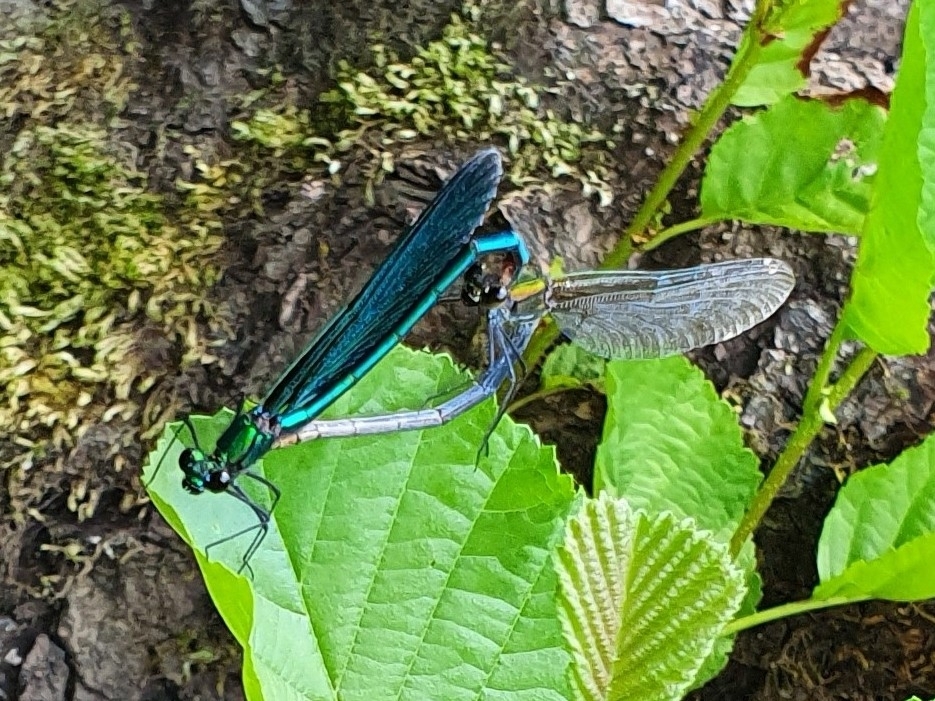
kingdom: Animalia
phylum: Arthropoda
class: Insecta
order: Odonata
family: Calopterygidae
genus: Calopteryx
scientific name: Calopteryx virgo
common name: Beautiful demoiselle
